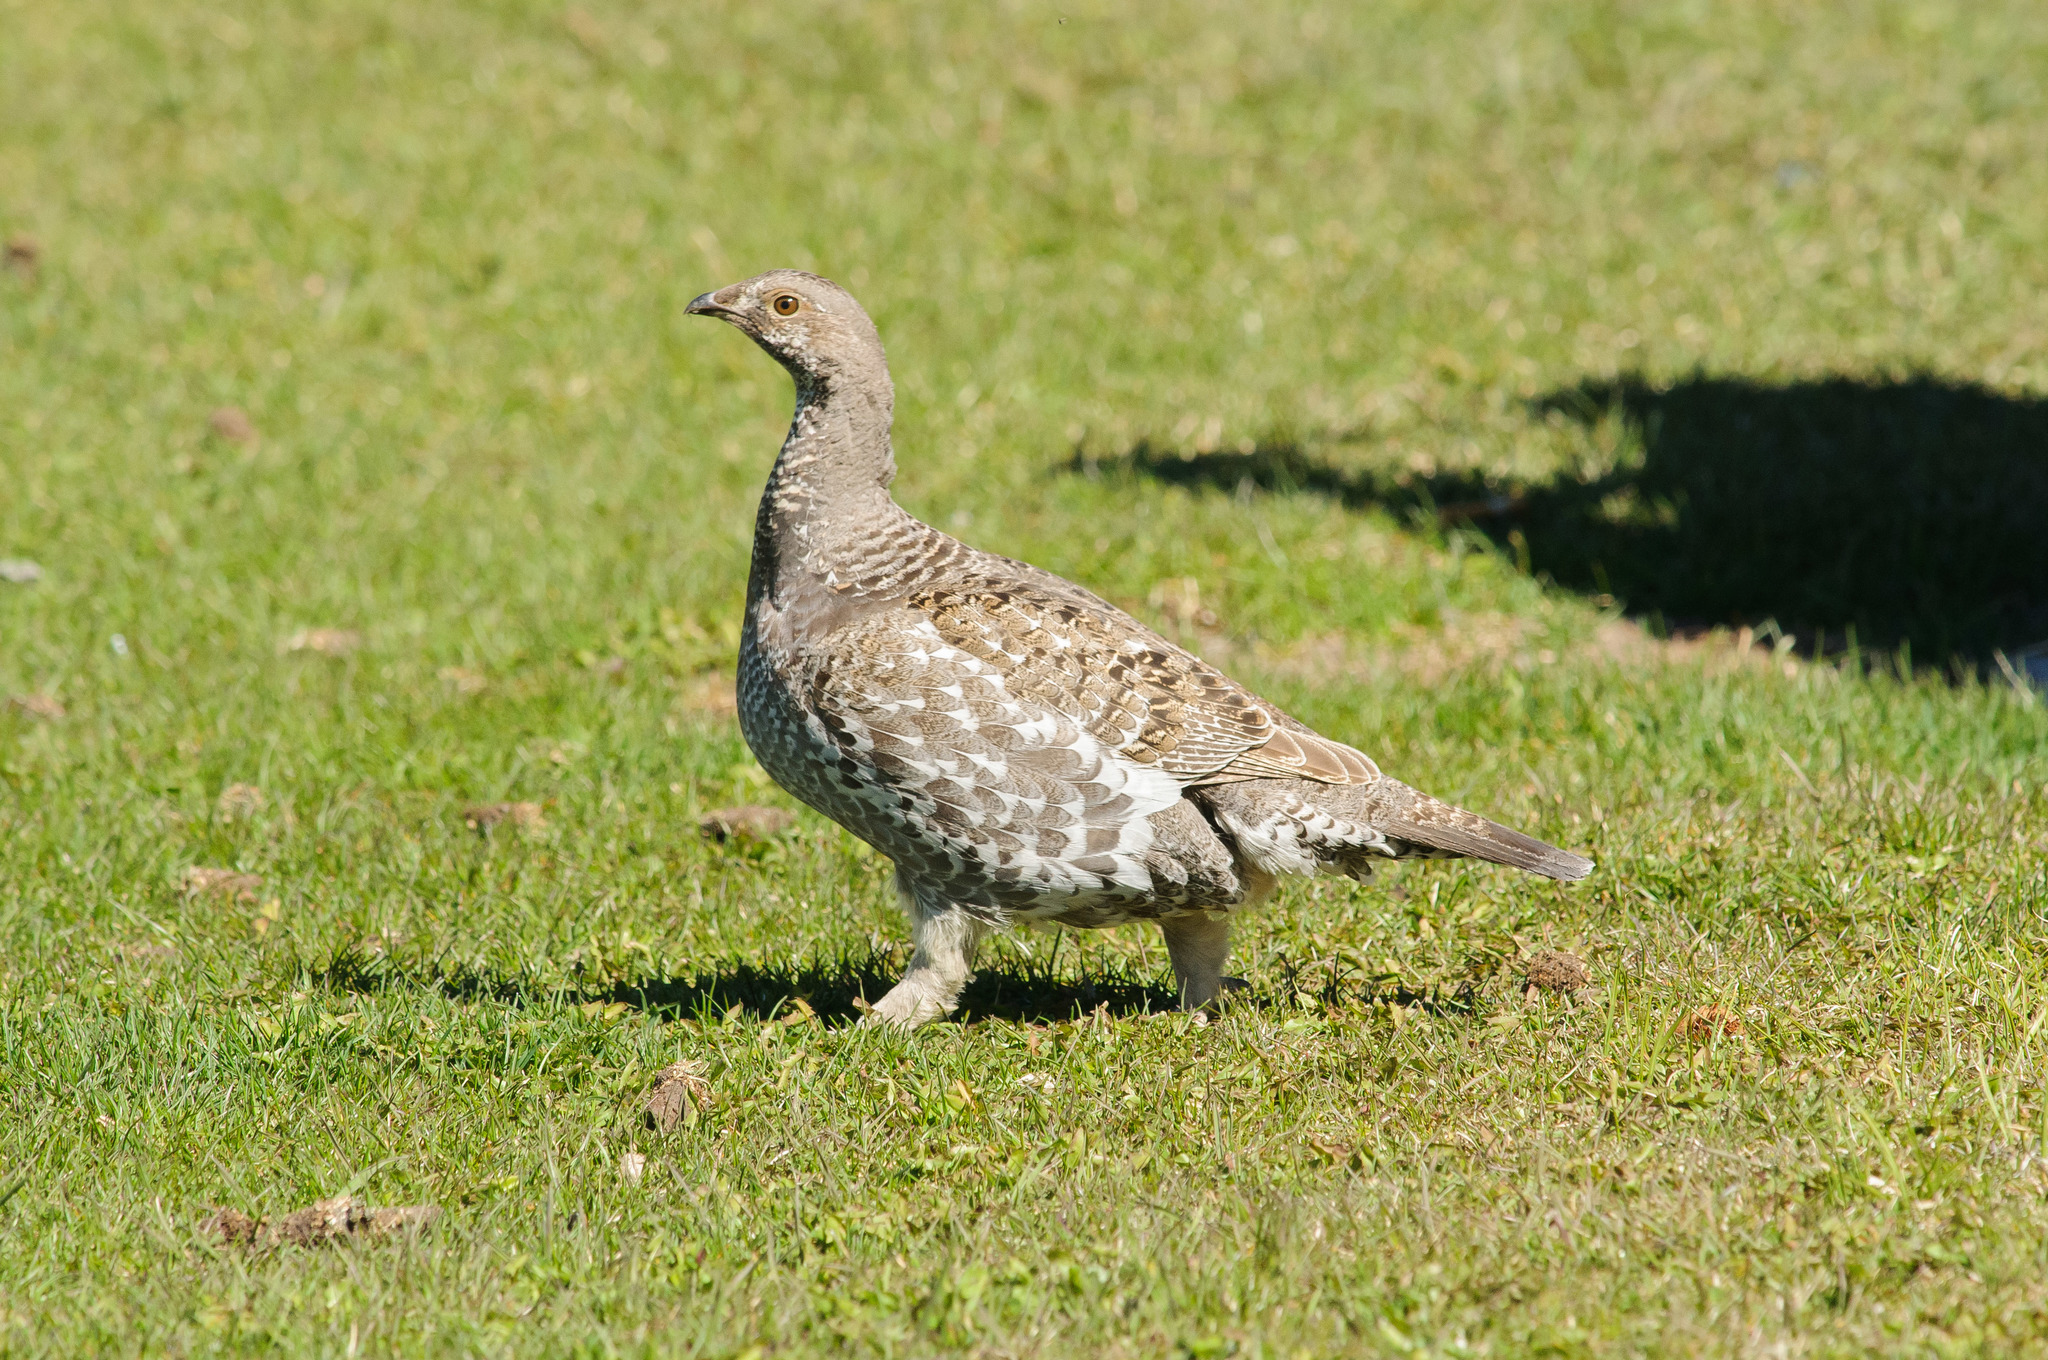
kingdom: Animalia
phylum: Chordata
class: Aves
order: Galliformes
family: Phasianidae
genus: Dendragapus
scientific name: Dendragapus obscurus
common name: Dusky grouse
